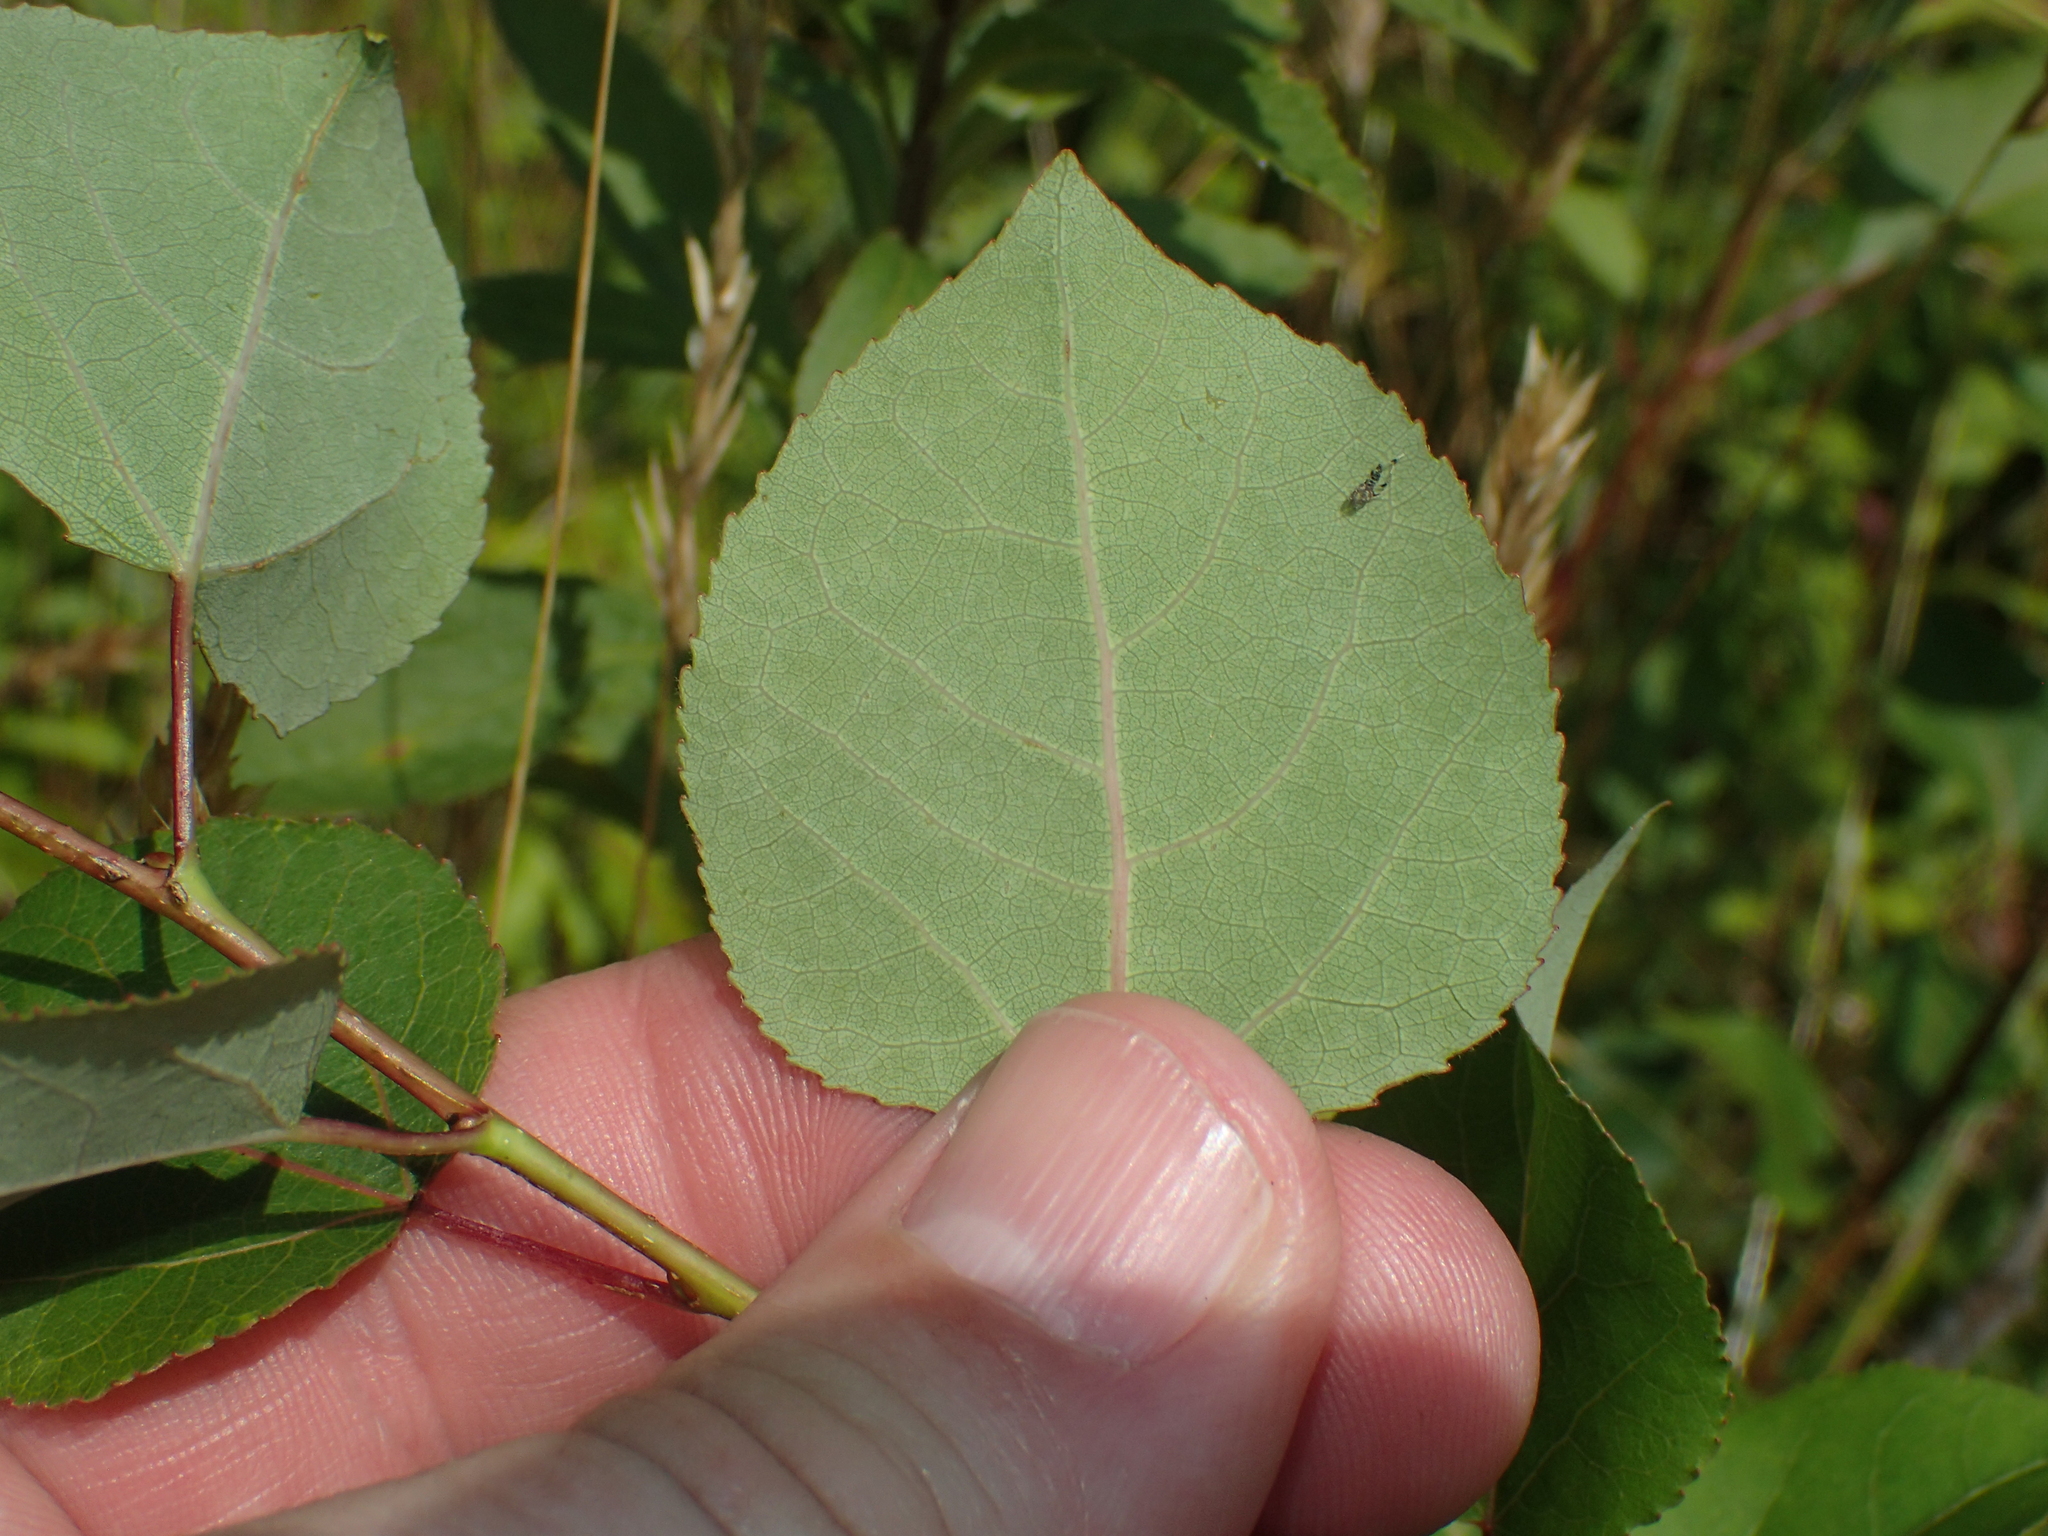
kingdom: Plantae
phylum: Tracheophyta
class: Magnoliopsida
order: Malpighiales
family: Salicaceae
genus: Populus
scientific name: Populus tremuloides
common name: Quaking aspen
